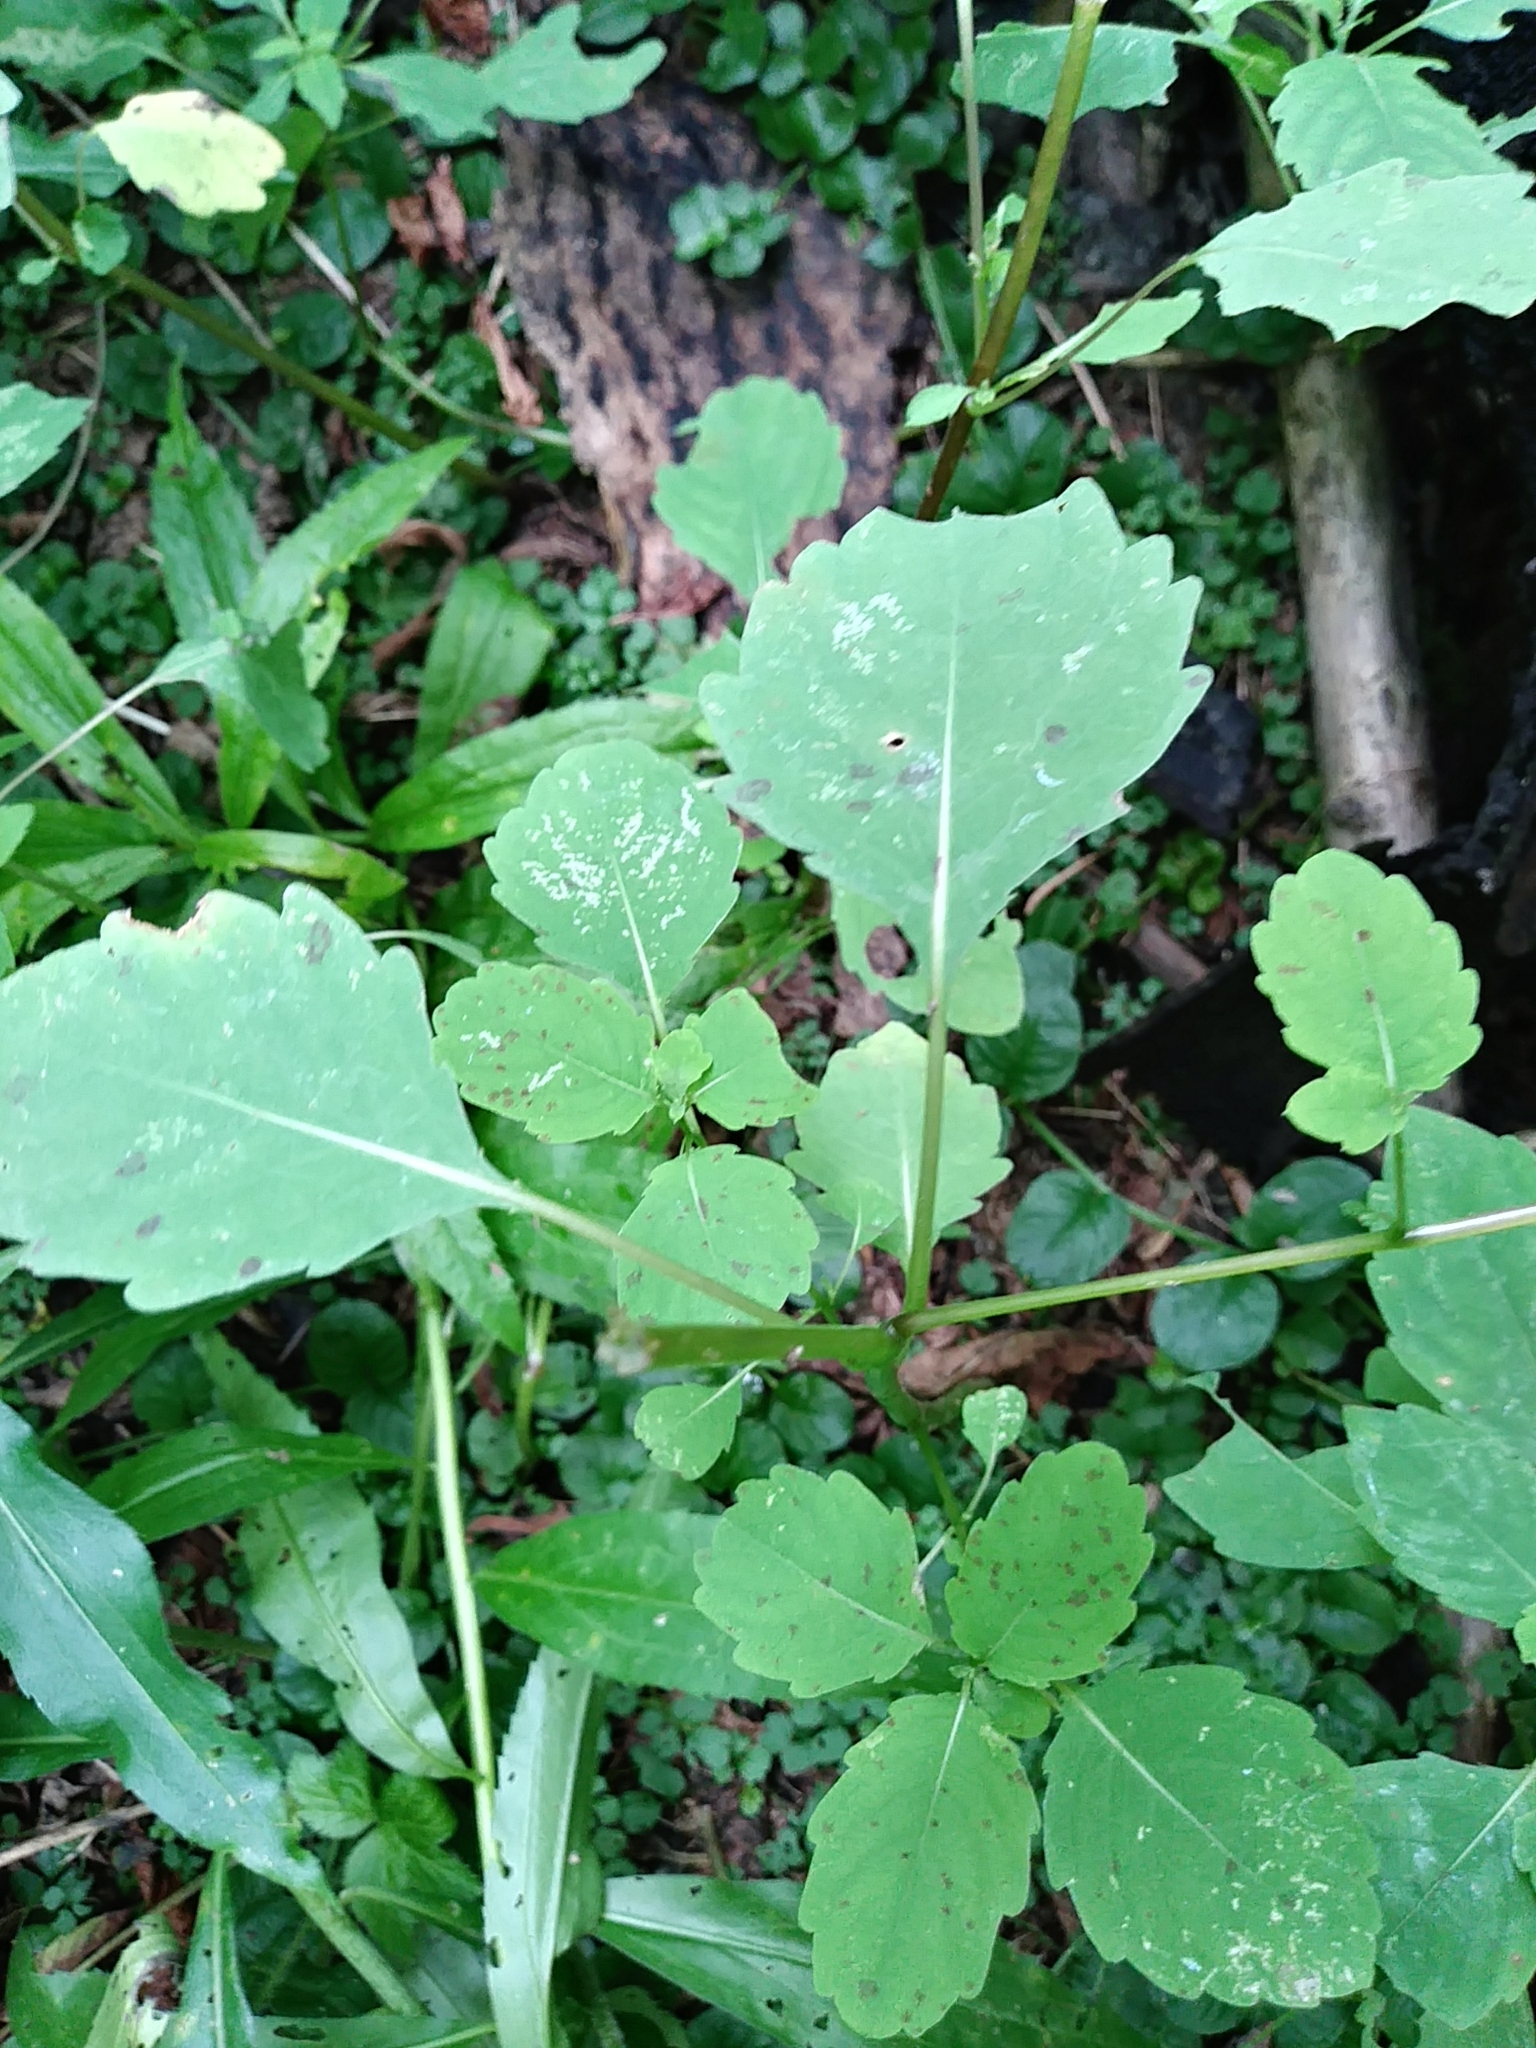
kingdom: Plantae
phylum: Tracheophyta
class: Magnoliopsida
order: Ericales
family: Balsaminaceae
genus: Impatiens
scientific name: Impatiens capensis
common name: Orange balsam
